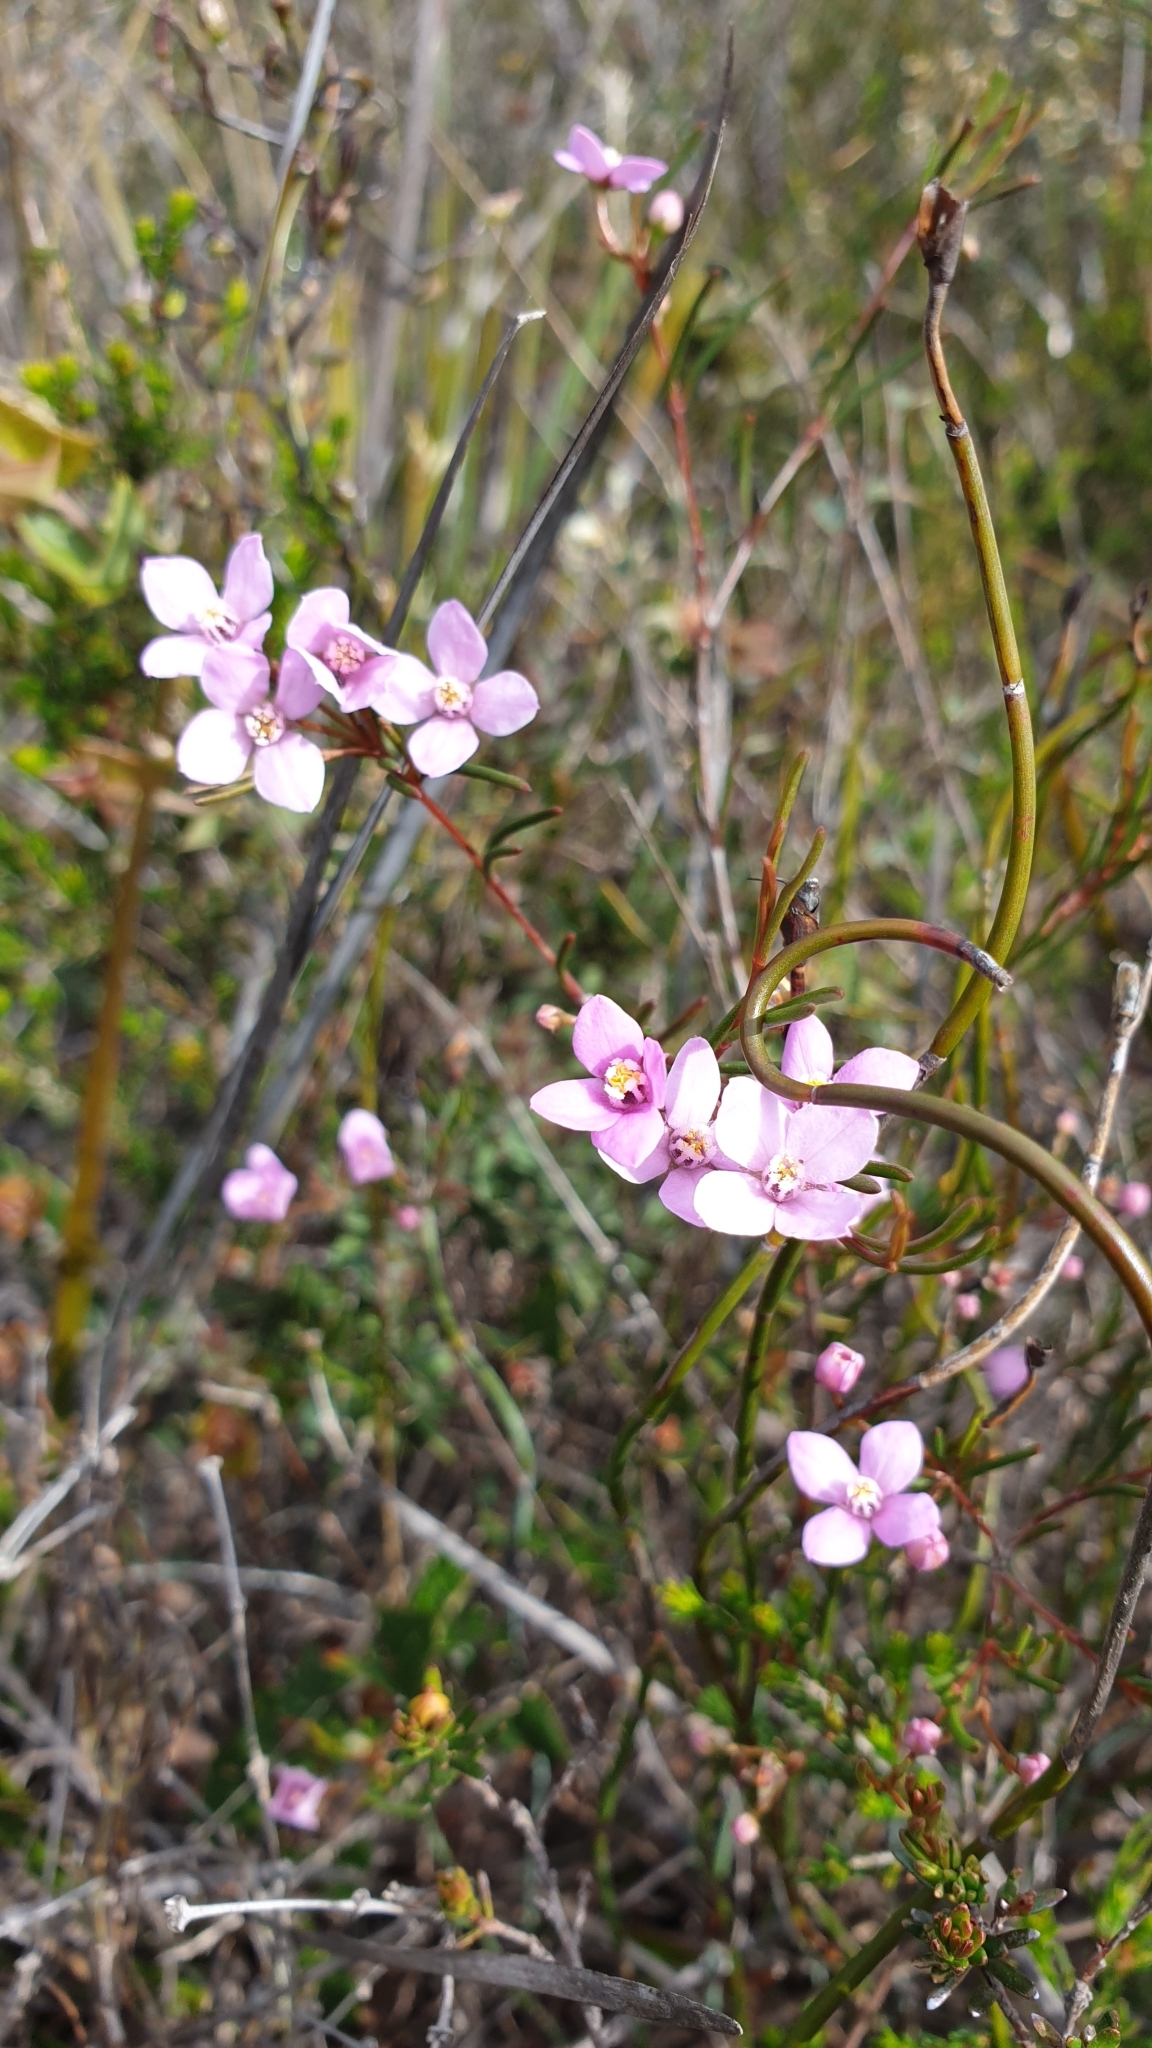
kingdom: Plantae
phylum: Tracheophyta
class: Magnoliopsida
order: Sapindales
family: Rutaceae
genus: Boronia
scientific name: Boronia filifolia
